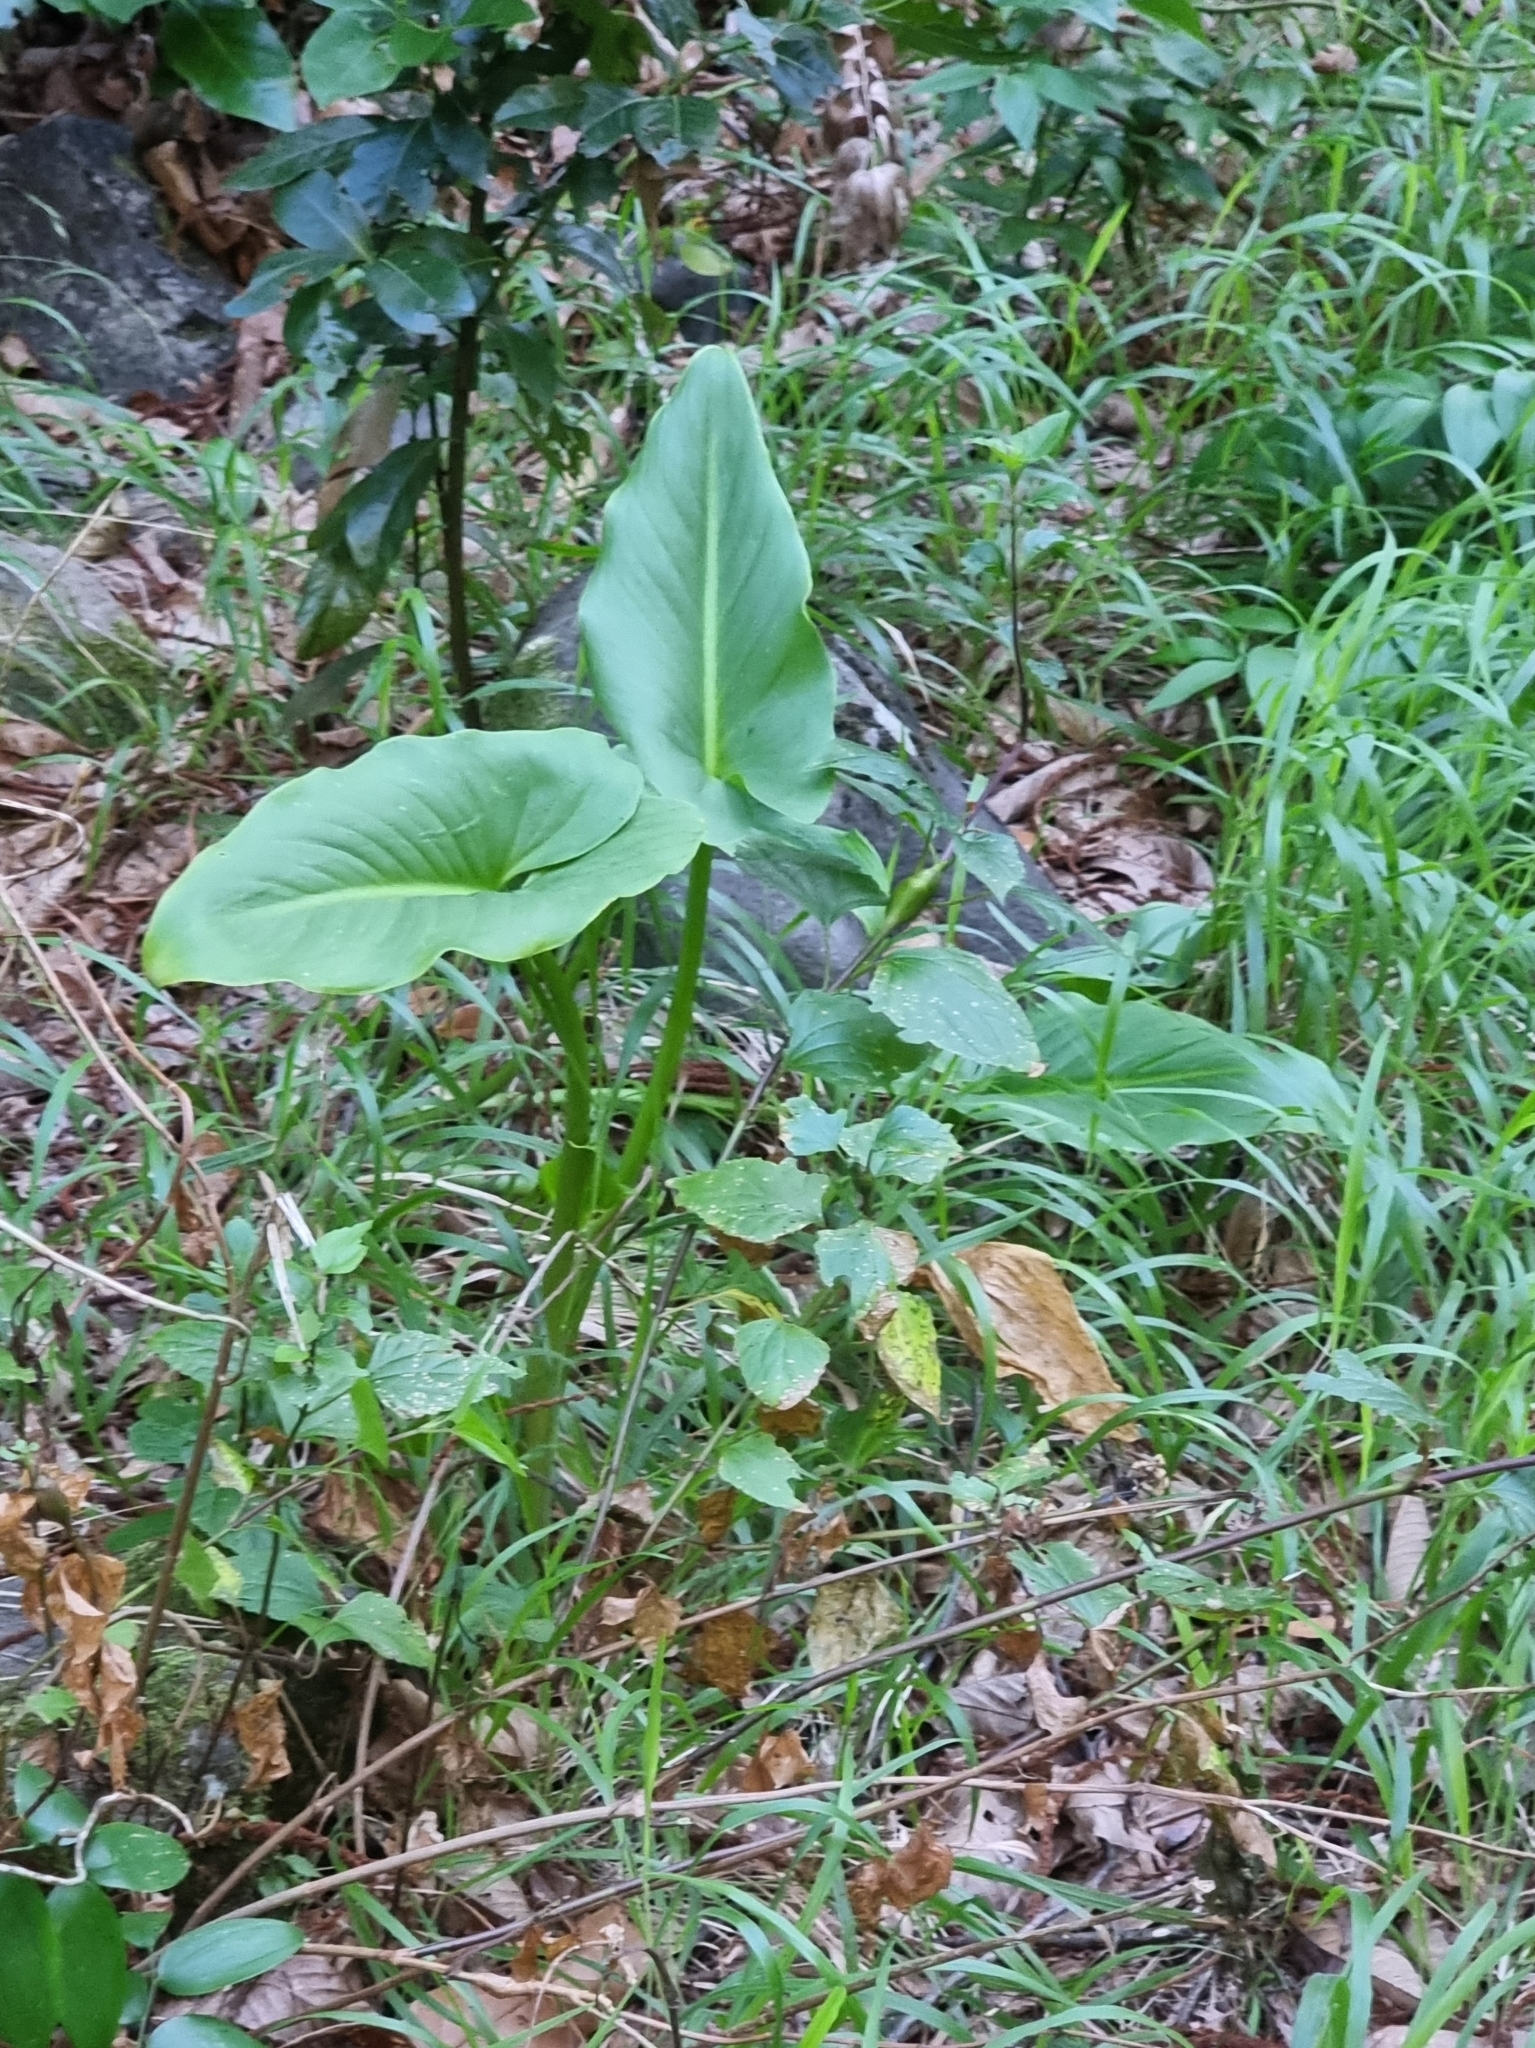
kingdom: Plantae
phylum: Tracheophyta
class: Liliopsida
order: Alismatales
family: Araceae
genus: Zantedeschia
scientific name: Zantedeschia aethiopica
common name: Altar-lily
